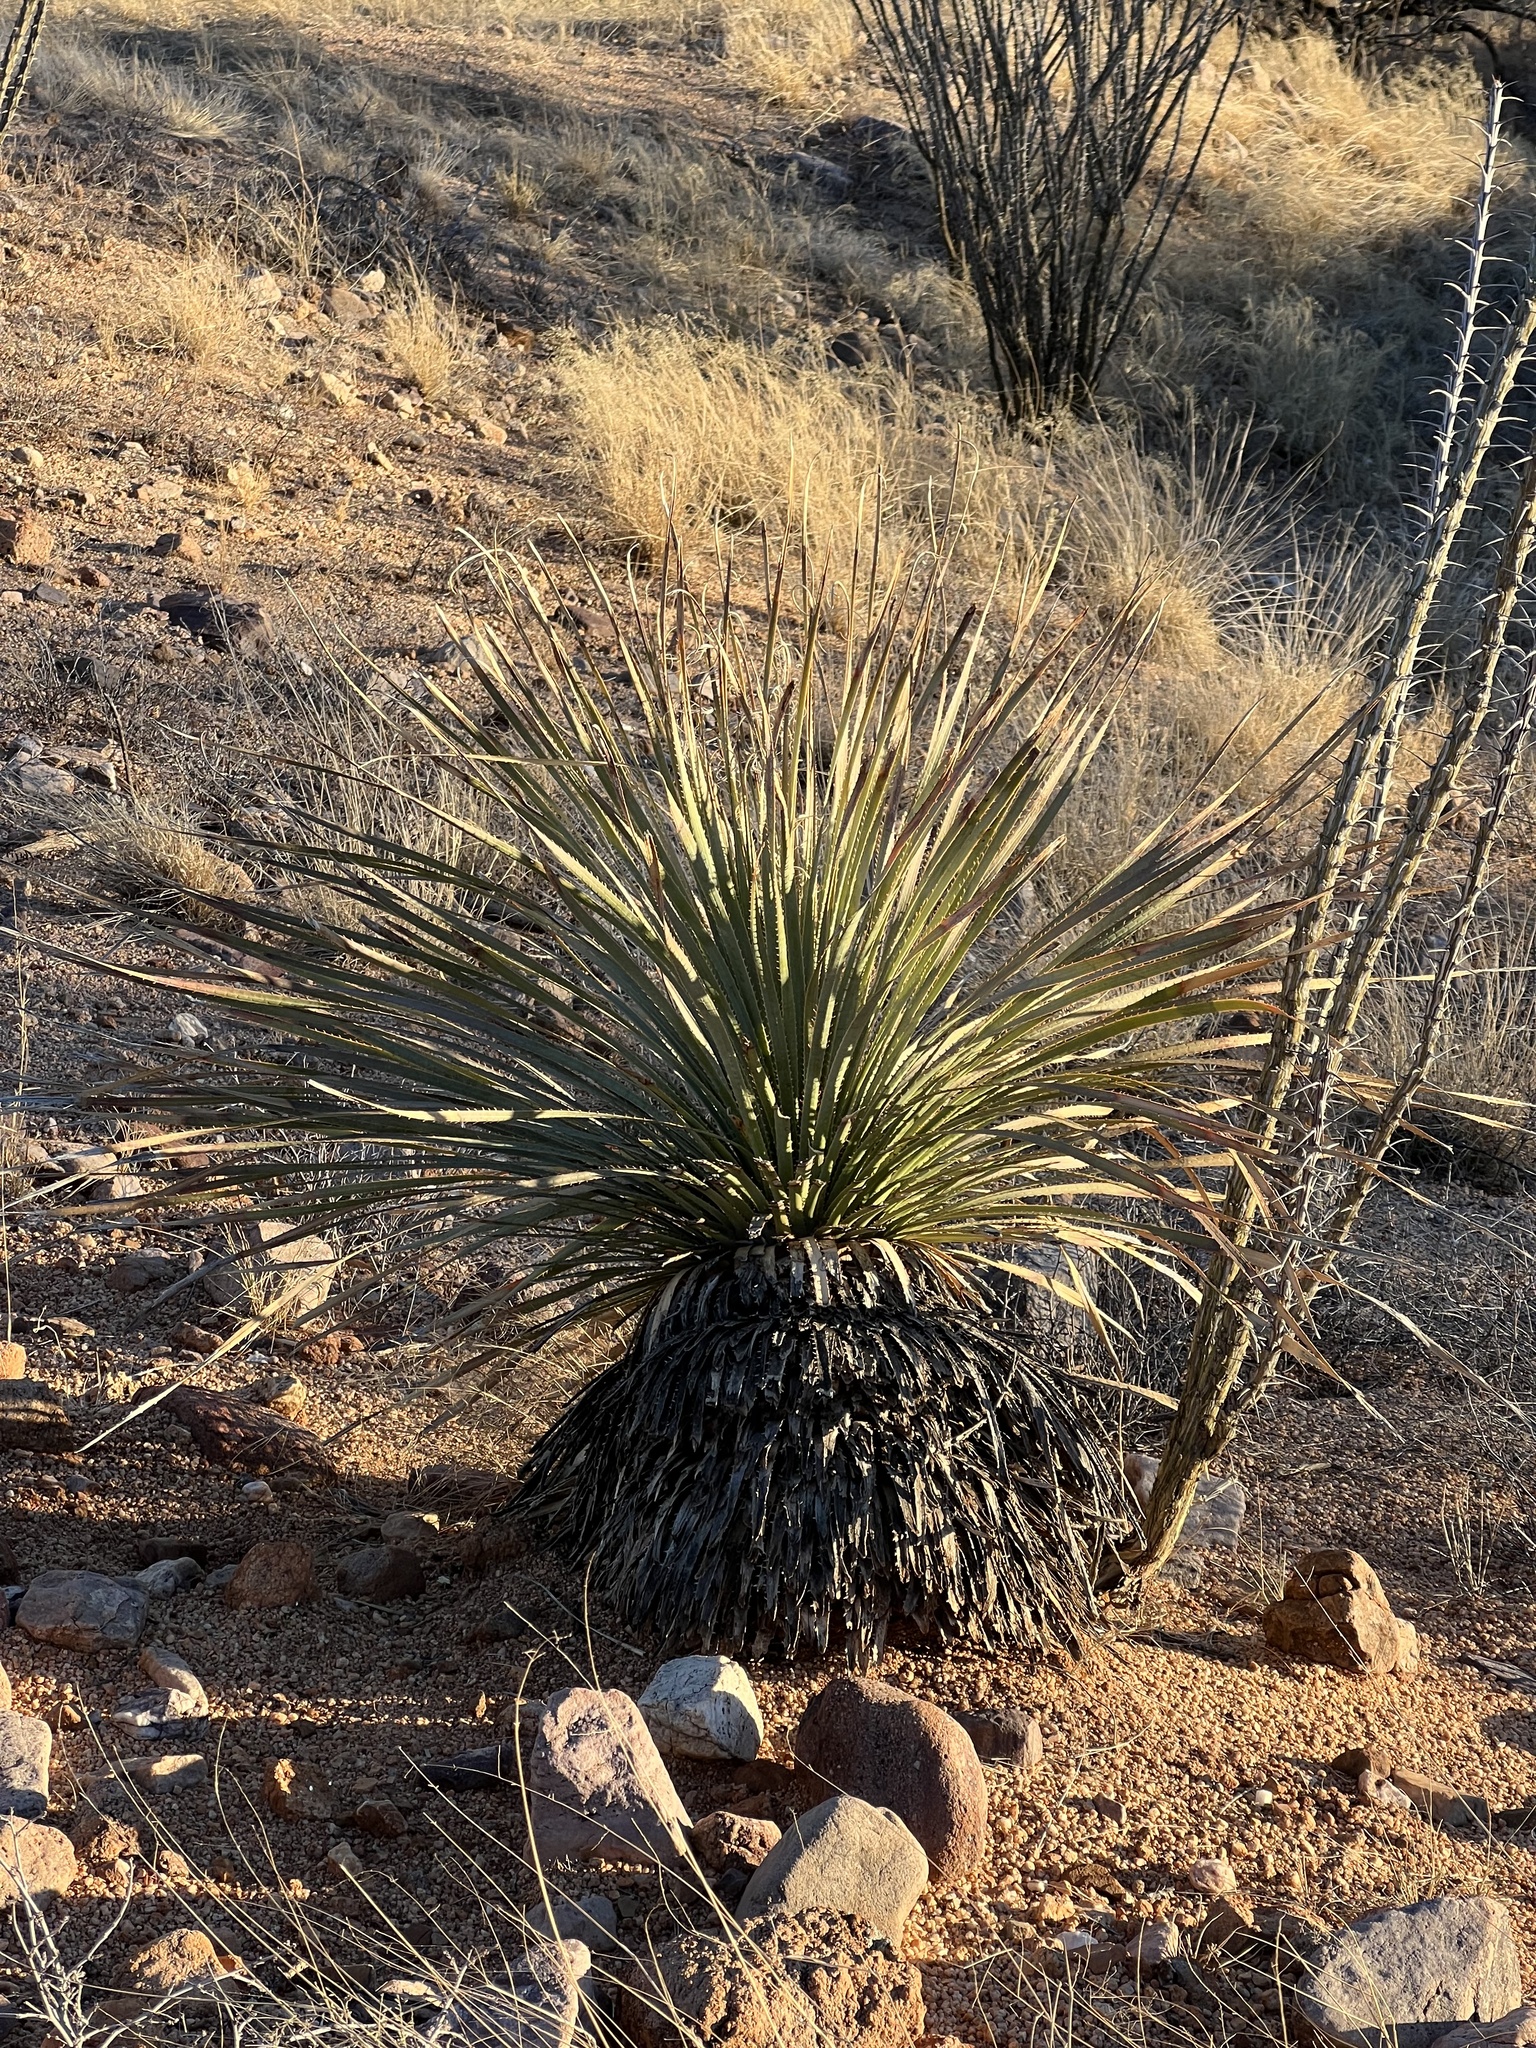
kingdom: Plantae
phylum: Tracheophyta
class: Liliopsida
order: Asparagales
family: Asparagaceae
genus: Dasylirion
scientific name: Dasylirion wheeleri
